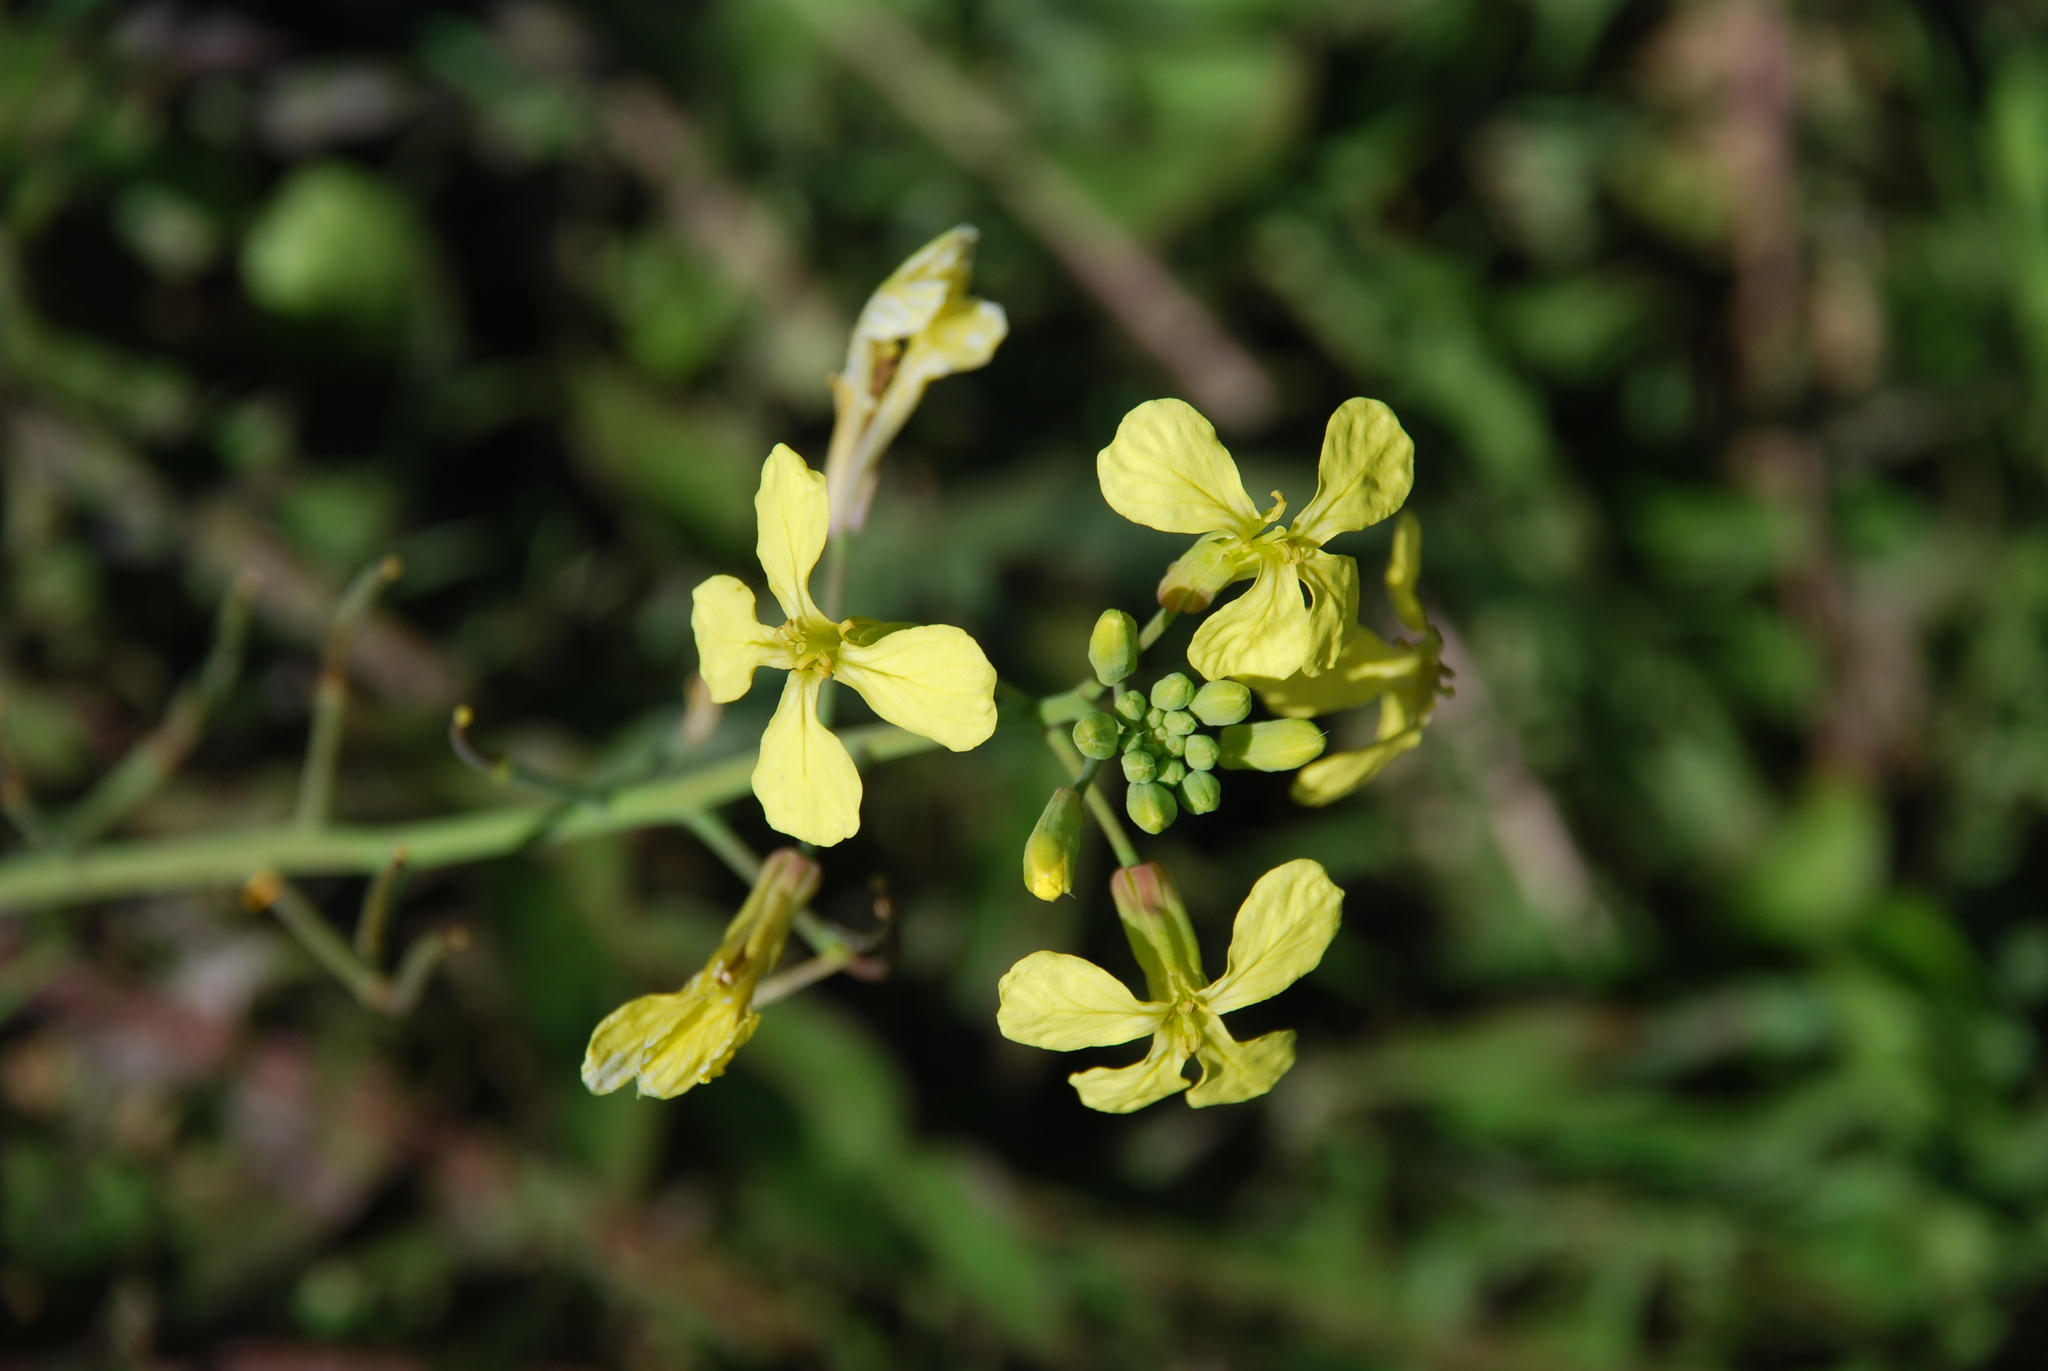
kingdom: Plantae
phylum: Tracheophyta
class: Magnoliopsida
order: Brassicales
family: Brassicaceae
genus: Raphanus
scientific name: Raphanus raphanistrum
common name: Wild radish
